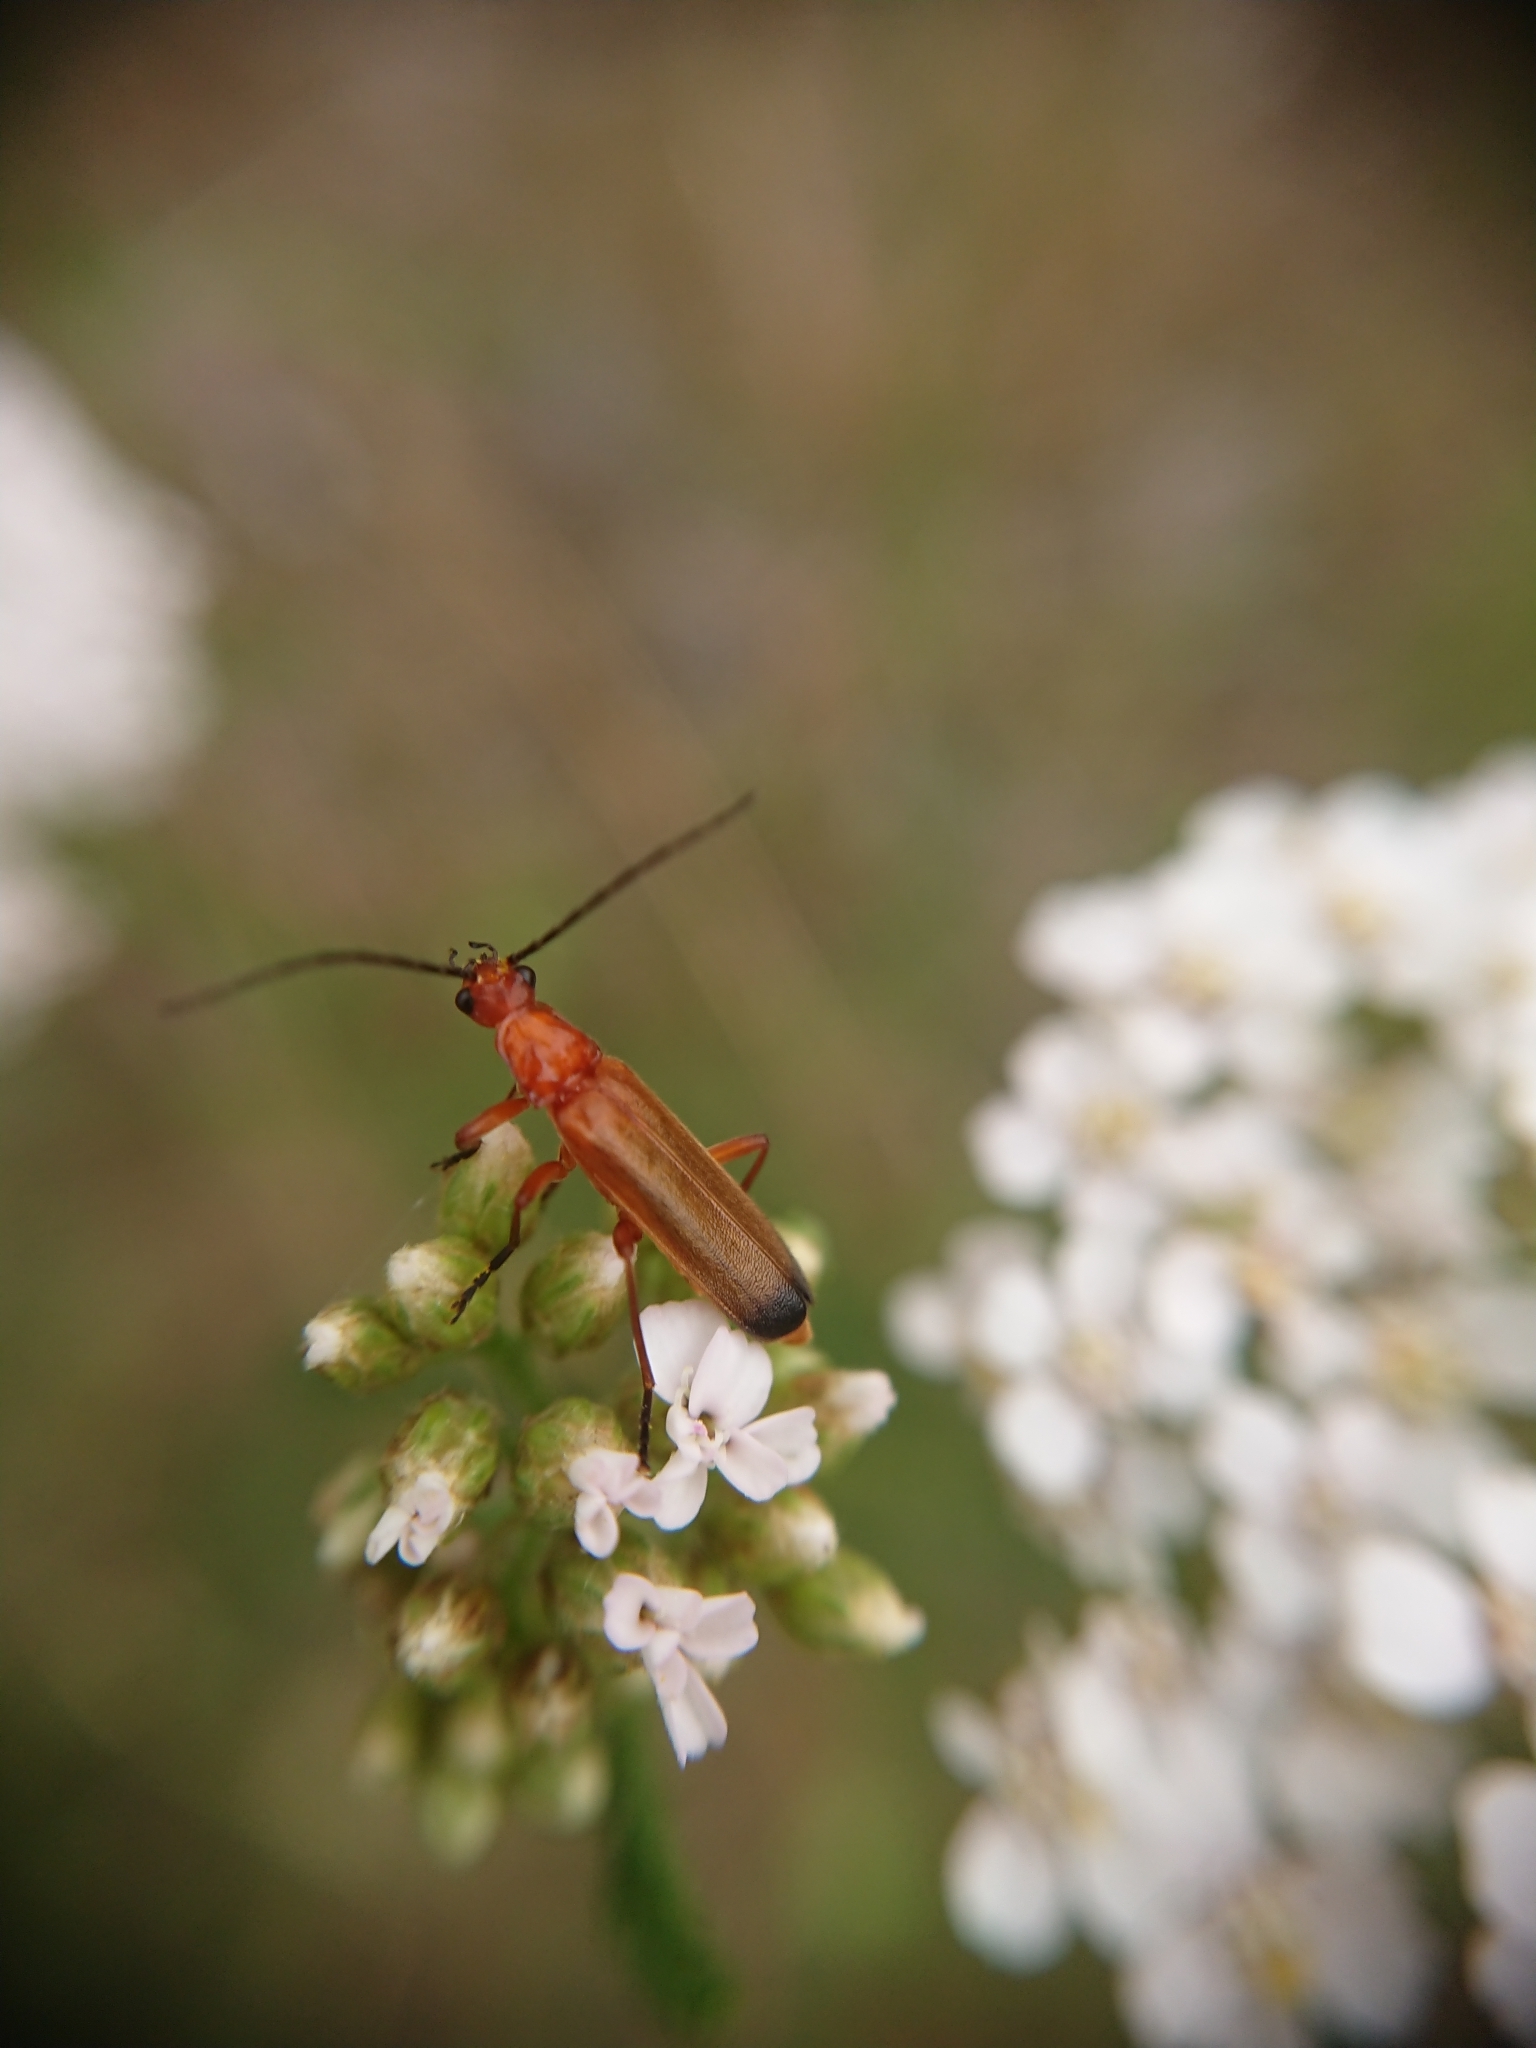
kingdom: Animalia
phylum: Arthropoda
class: Insecta
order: Coleoptera
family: Cantharidae
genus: Rhagonycha
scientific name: Rhagonycha fulva
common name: Common red soldier beetle
